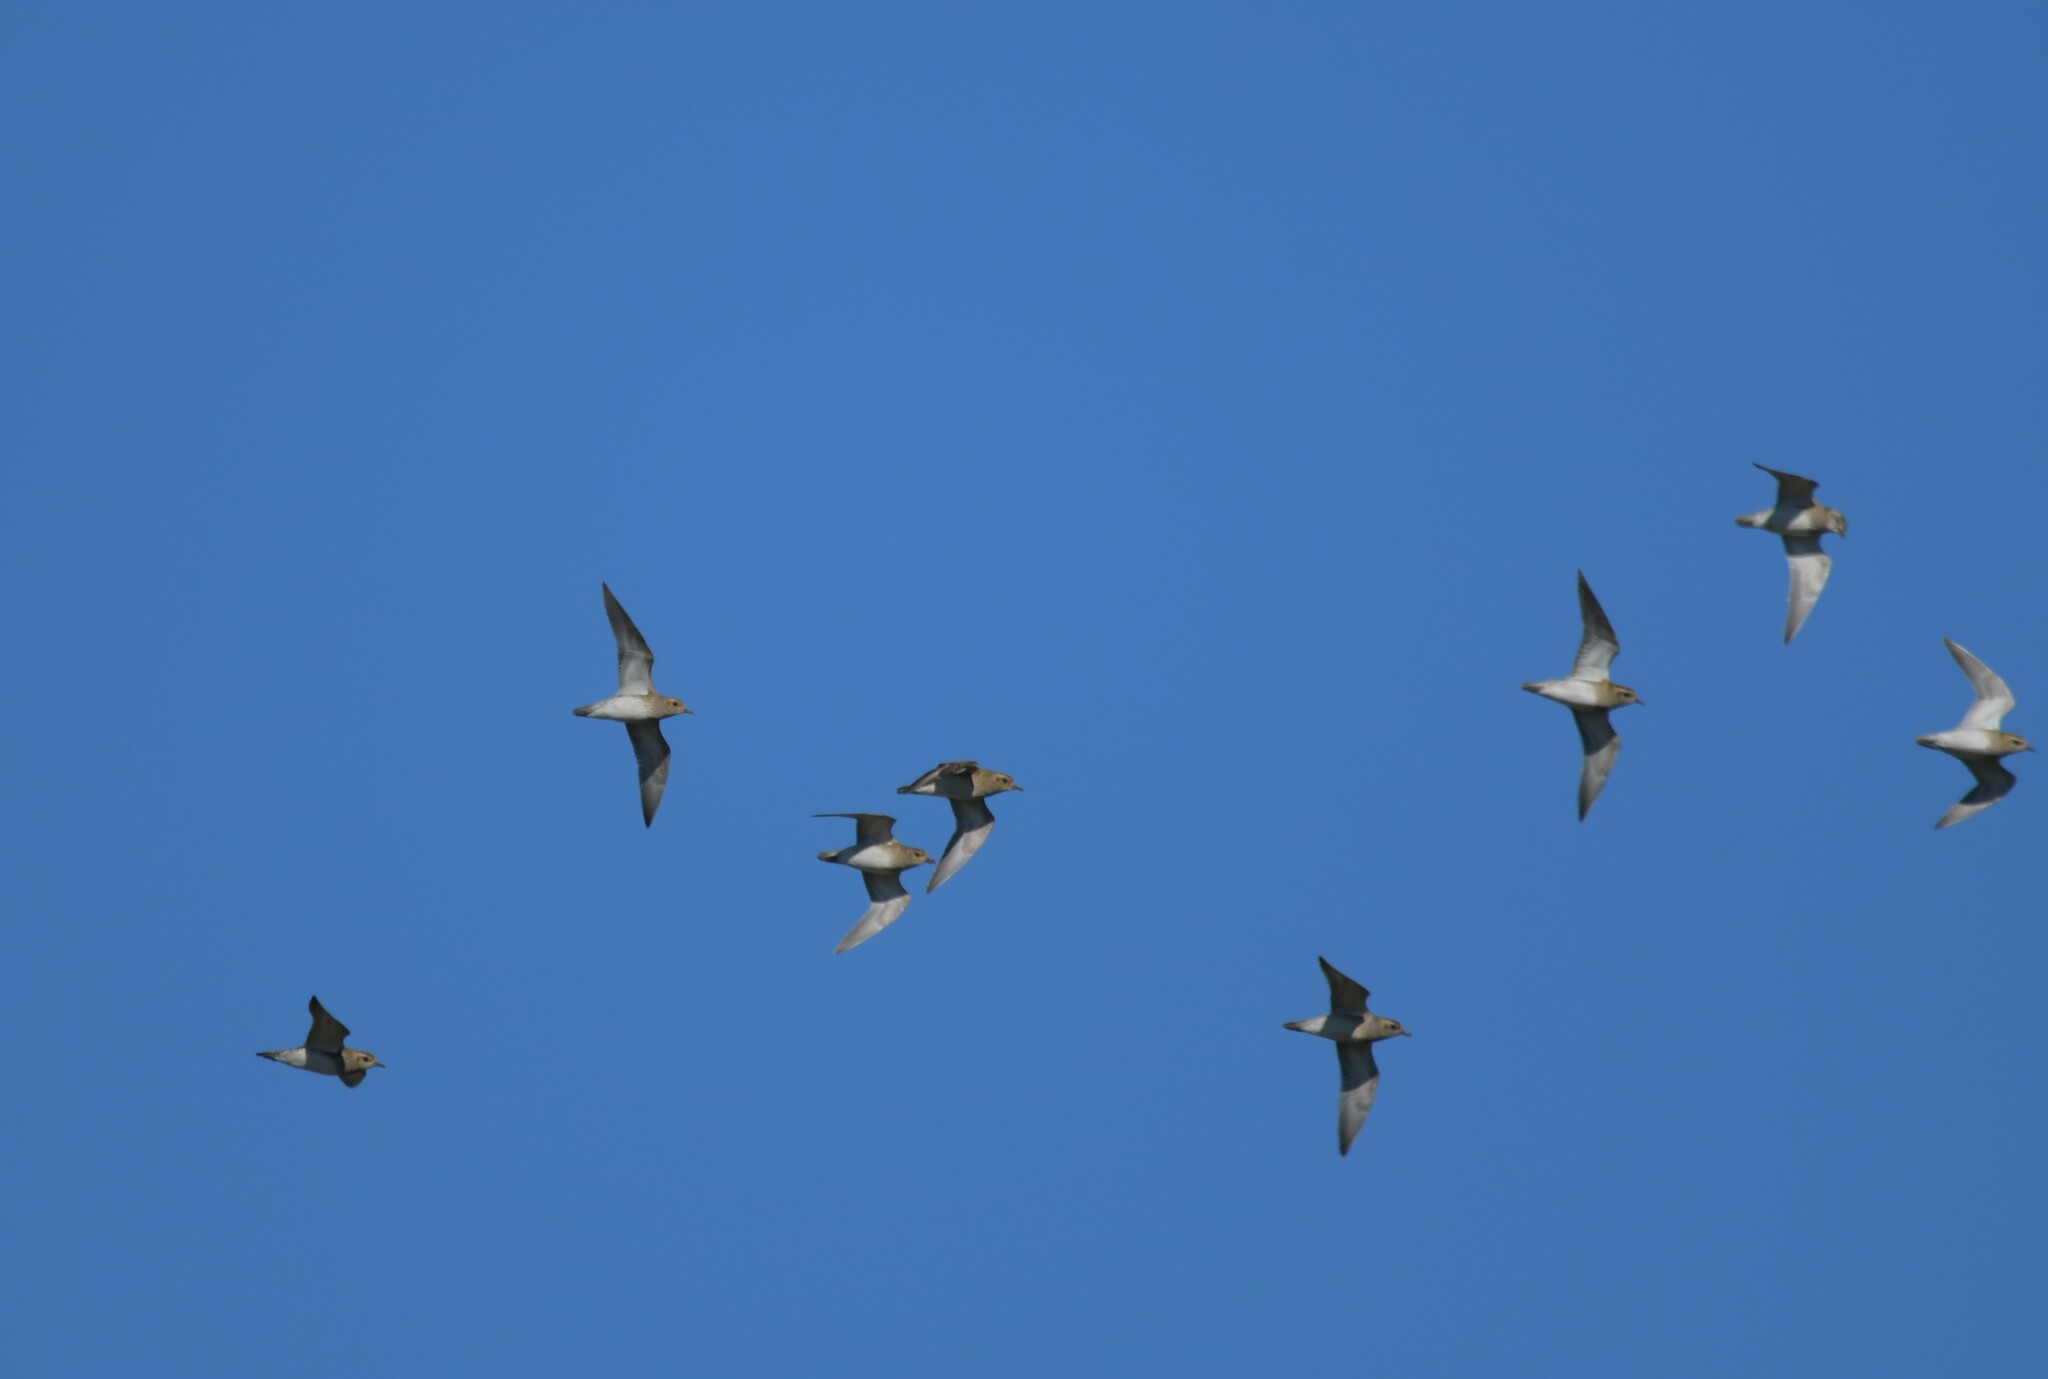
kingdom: Animalia
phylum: Chordata
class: Aves
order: Charadriiformes
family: Charadriidae
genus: Pluvialis
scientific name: Pluvialis apricaria
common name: European golden plover
